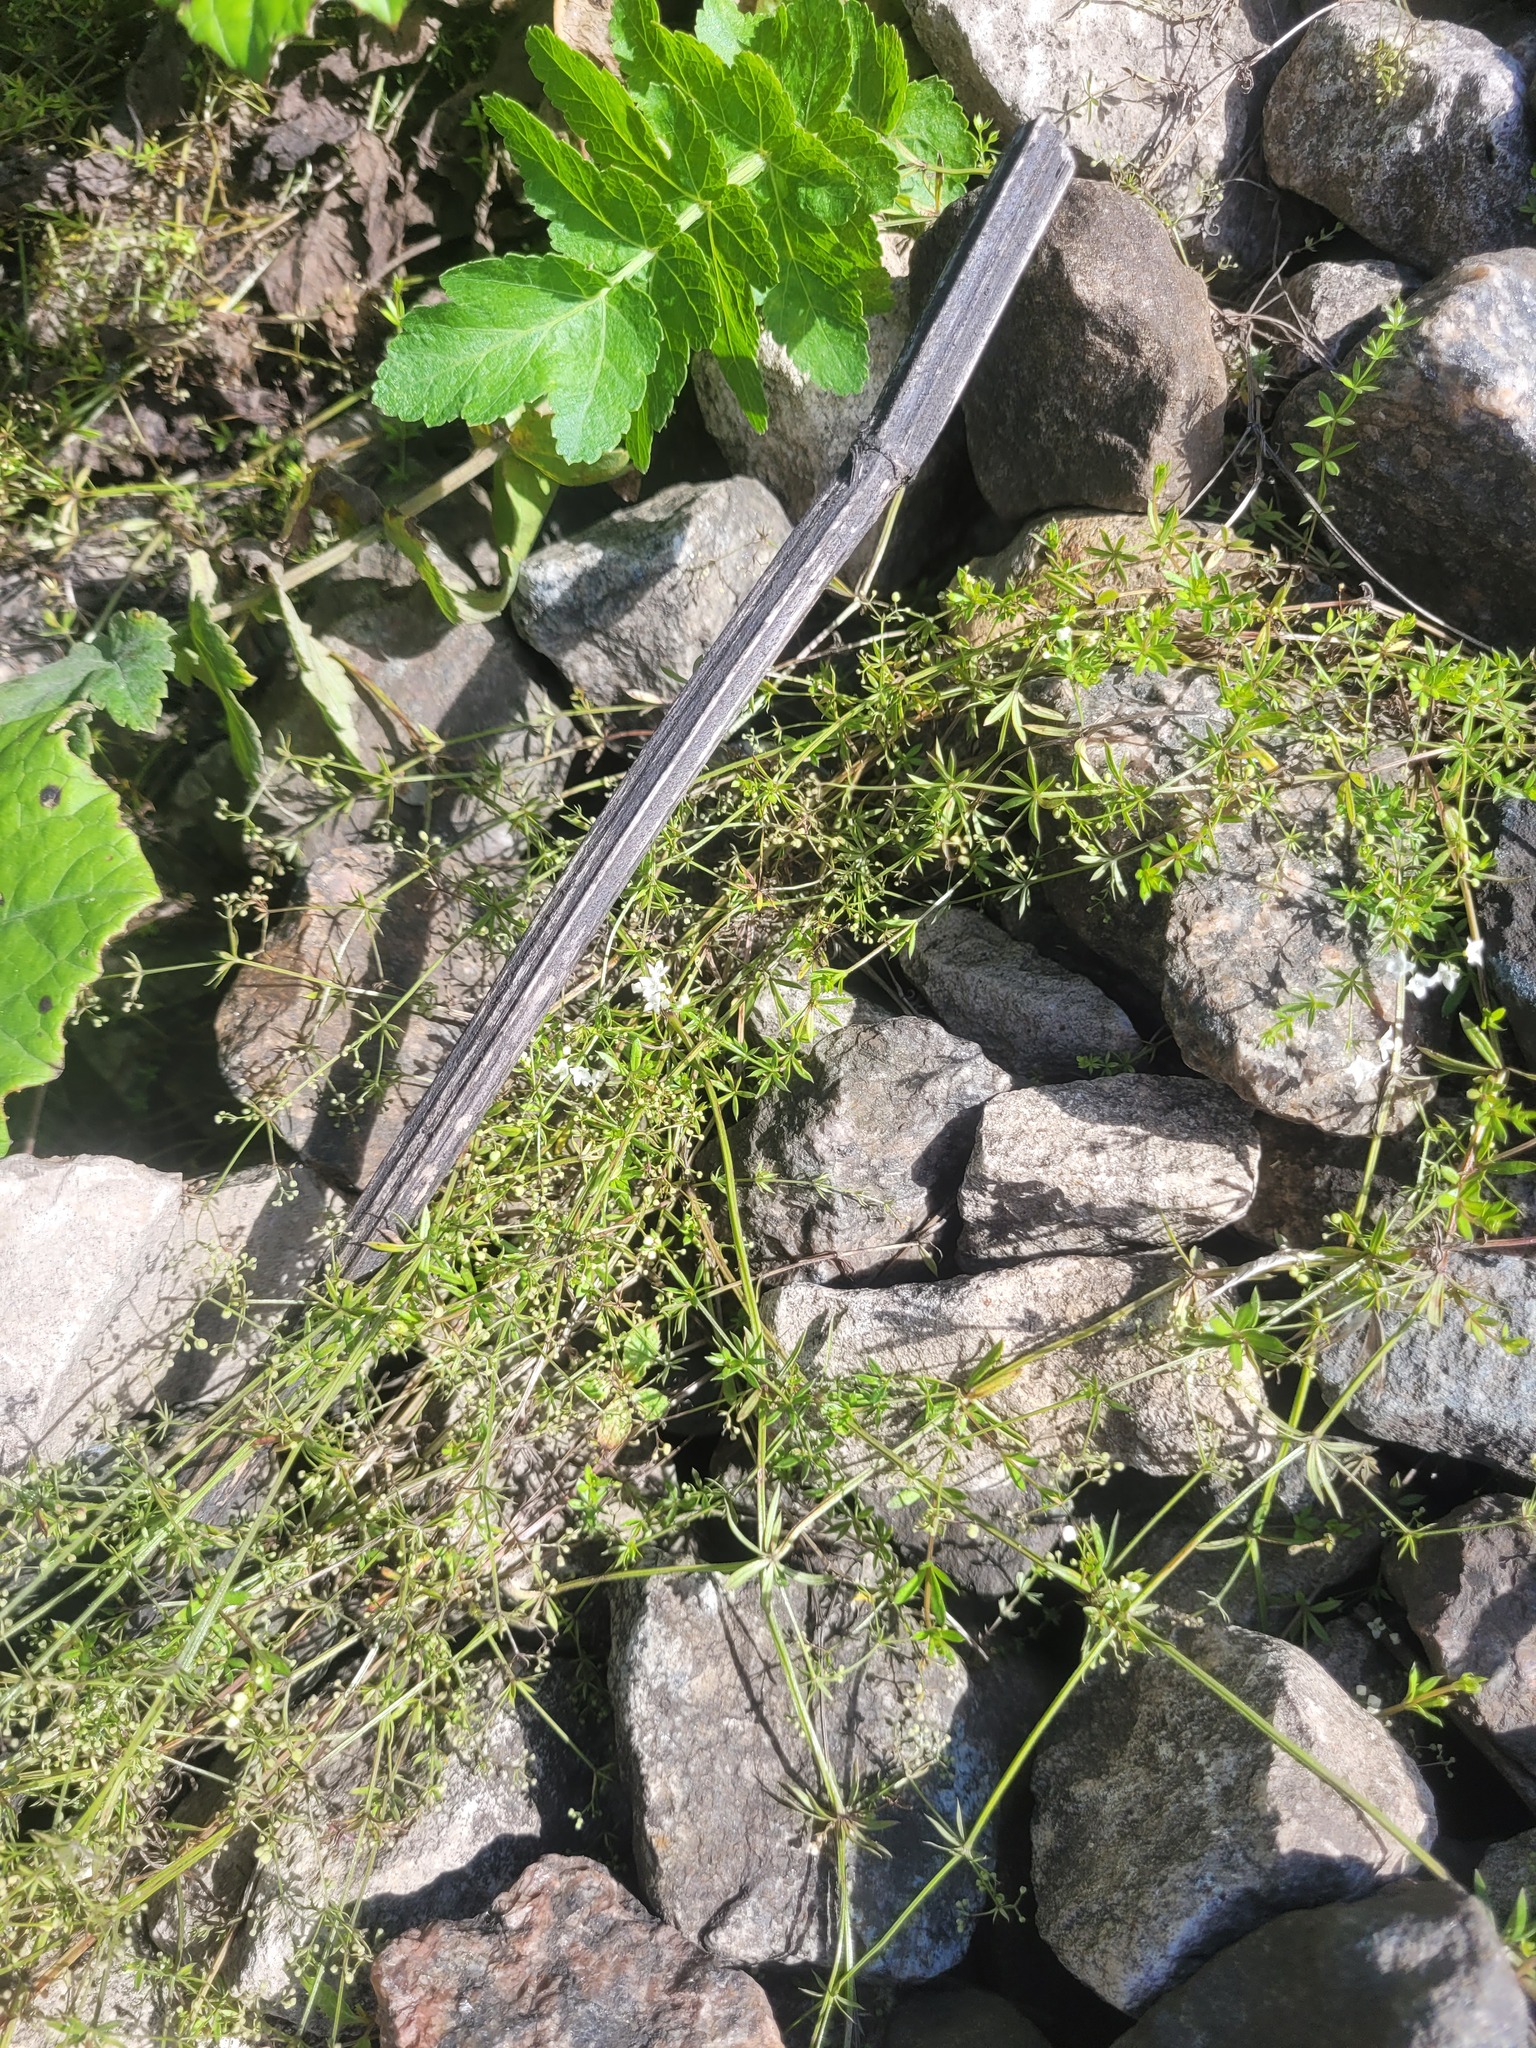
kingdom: Plantae
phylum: Tracheophyta
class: Magnoliopsida
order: Gentianales
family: Rubiaceae
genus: Galium
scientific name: Galium uliginosum
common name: Fen bedstraw
